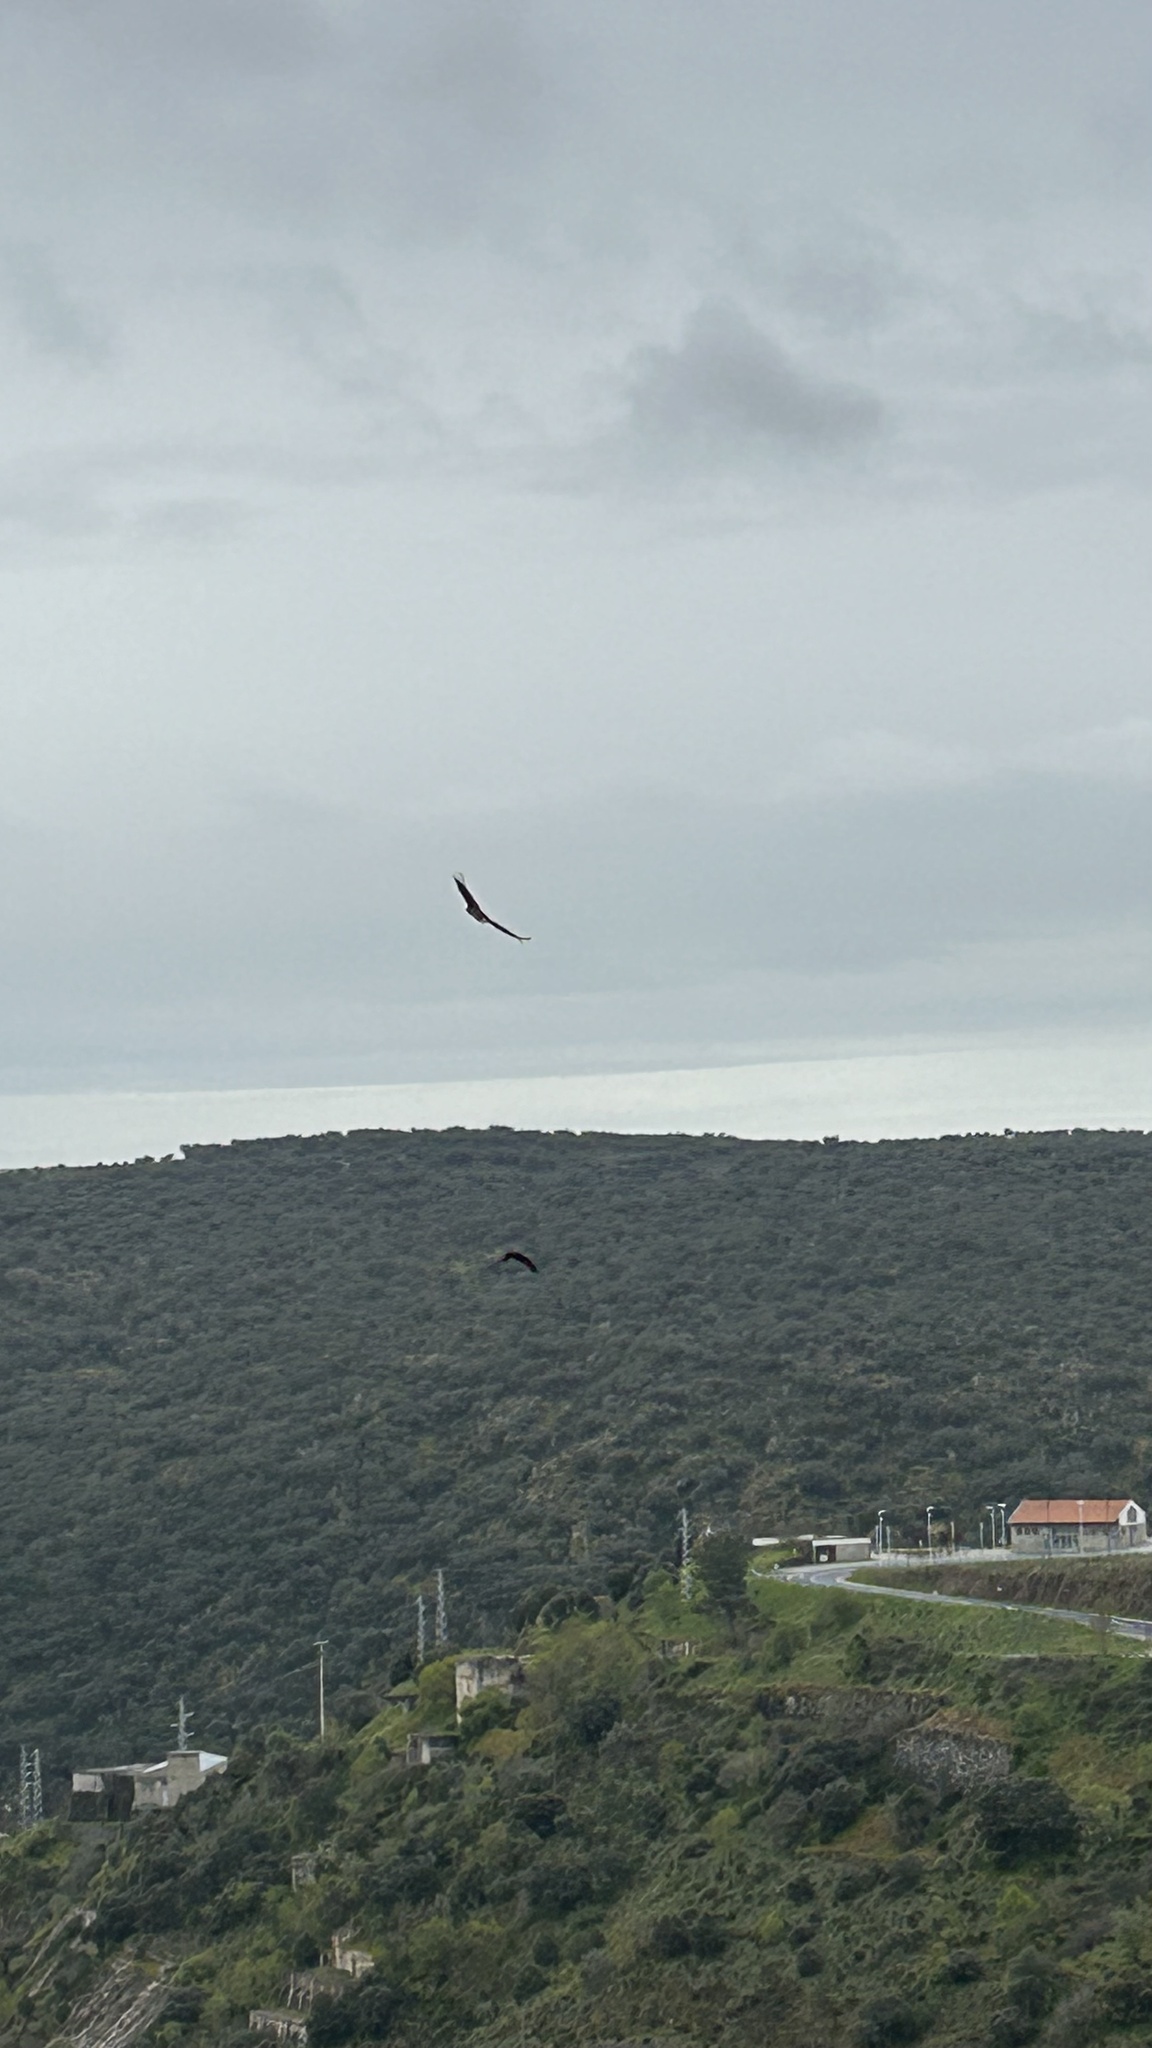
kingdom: Animalia
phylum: Chordata
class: Aves
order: Accipitriformes
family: Accipitridae
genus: Gyps
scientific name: Gyps fulvus
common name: Griffon vulture
